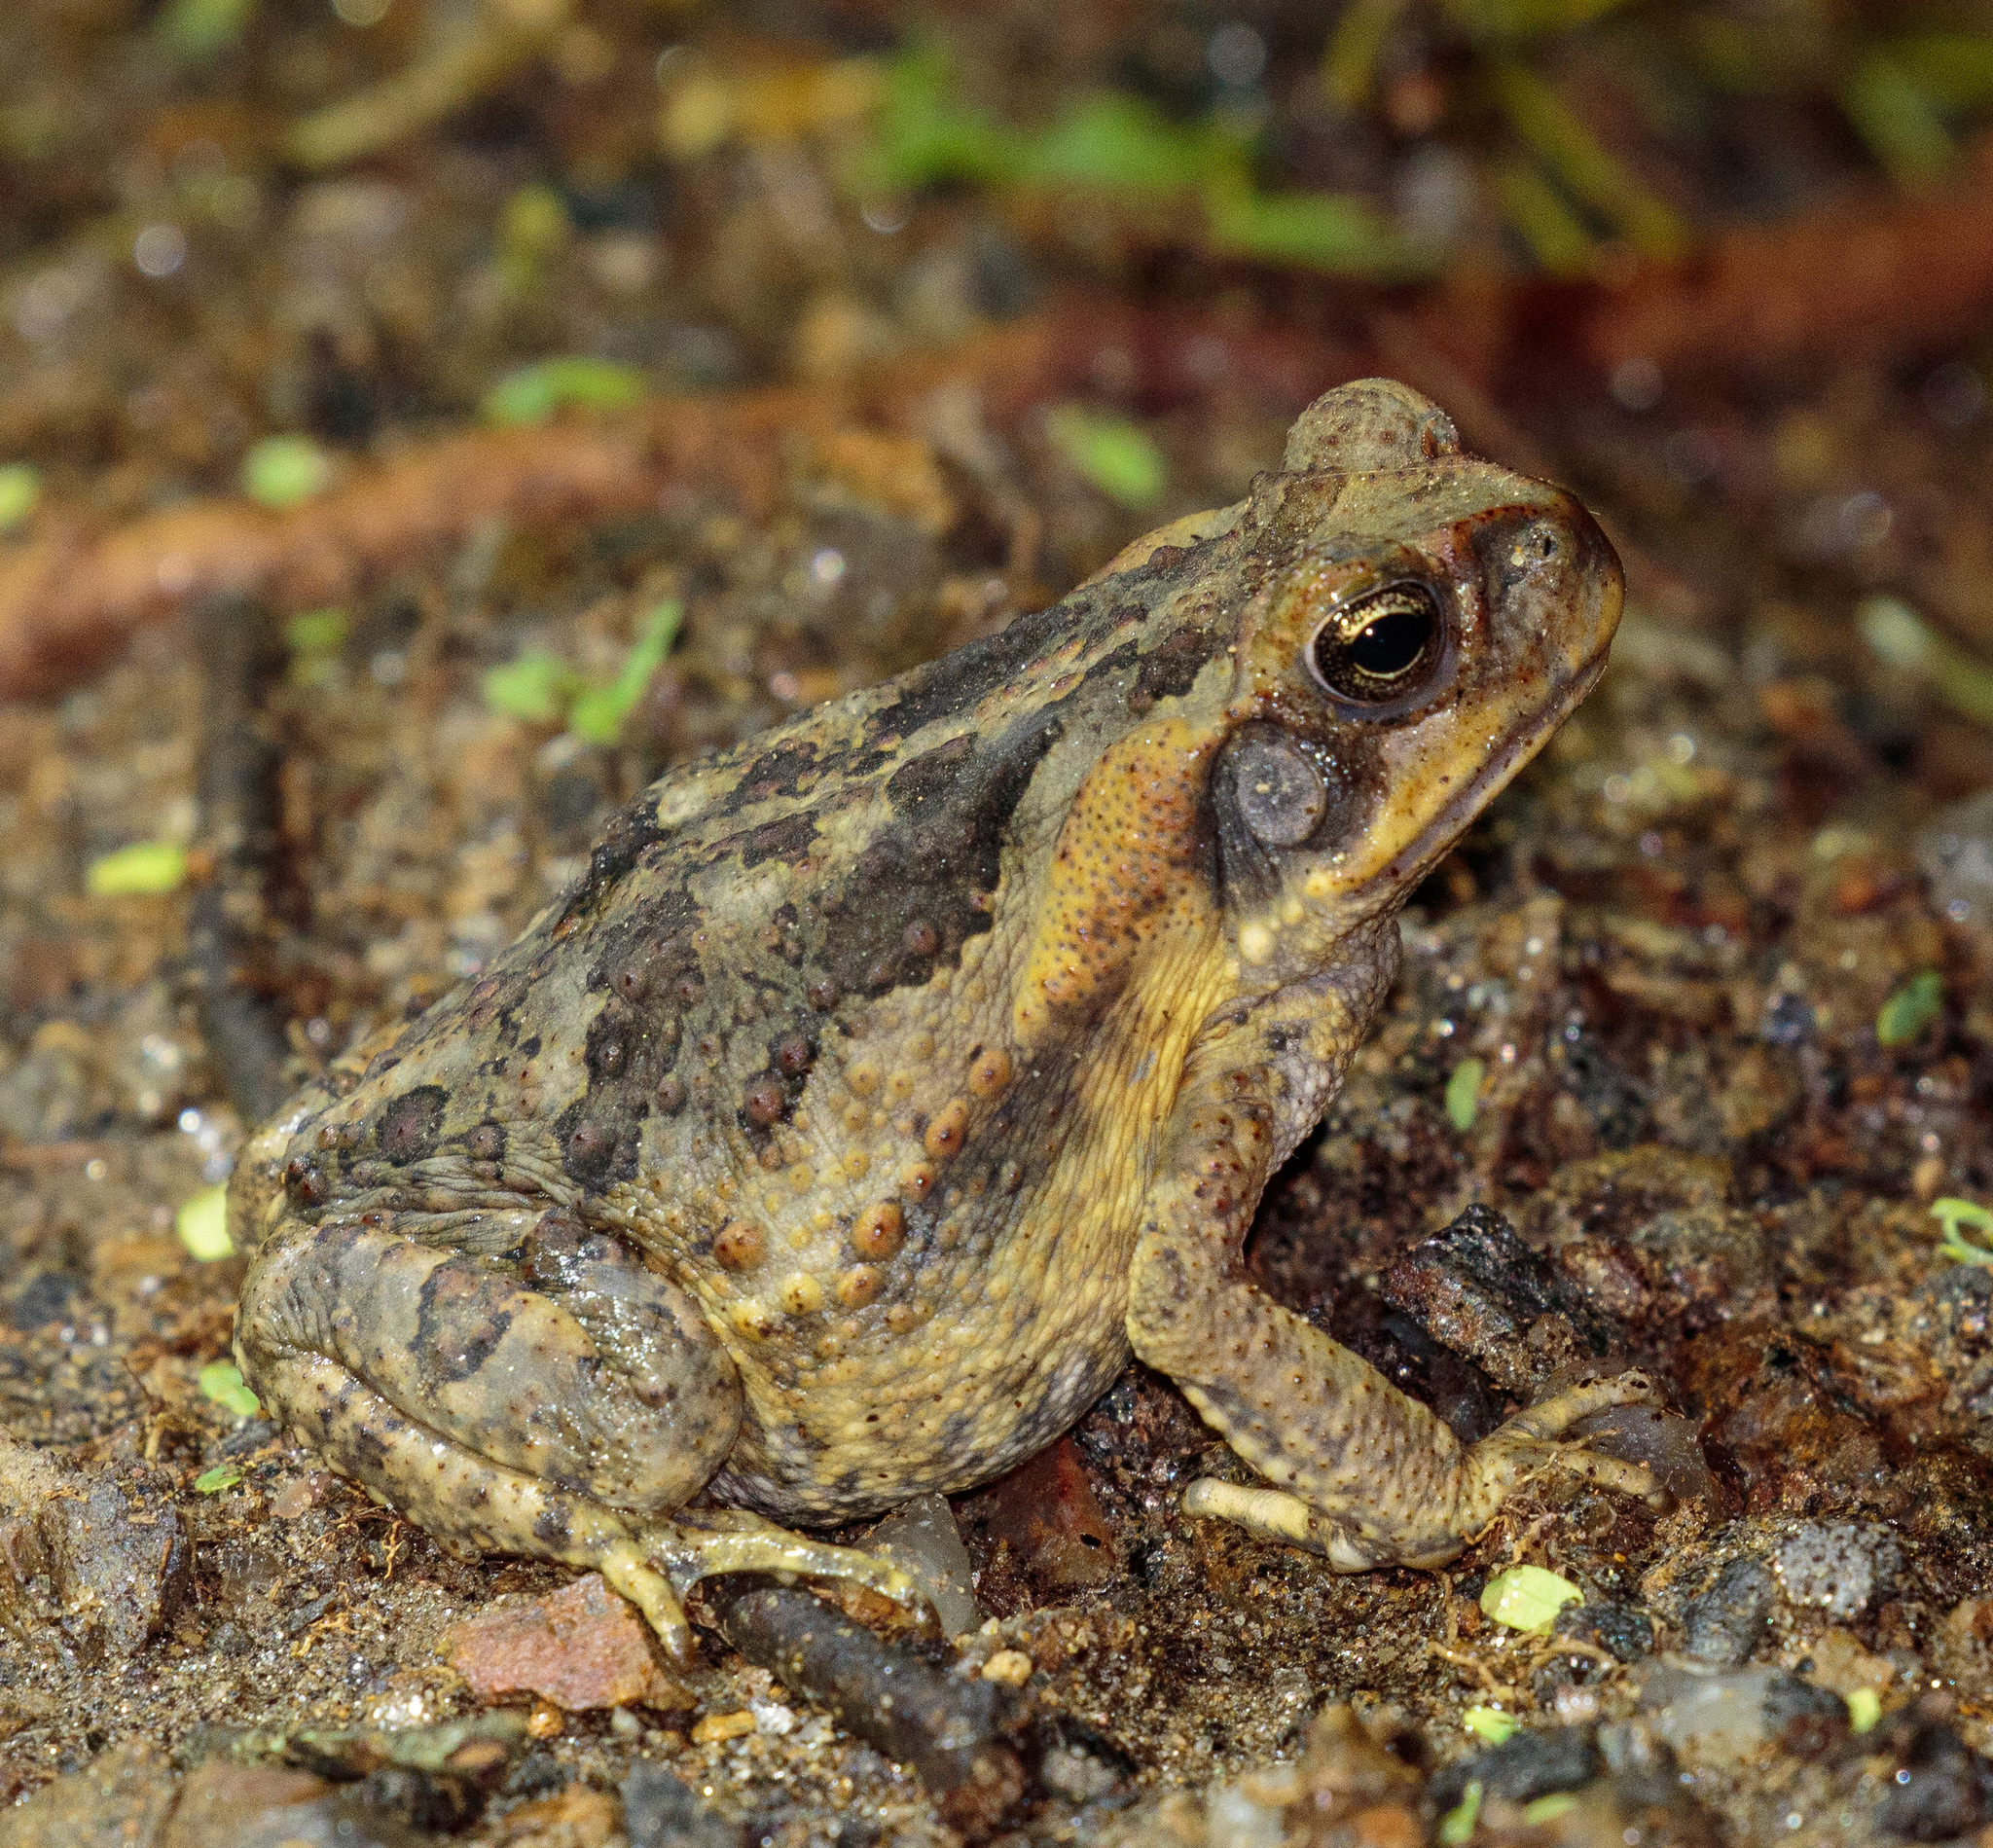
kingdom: Animalia
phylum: Chordata
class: Amphibia
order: Anura
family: Bufonidae
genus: Rhinella
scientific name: Rhinella diptycha
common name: Cope's toad
